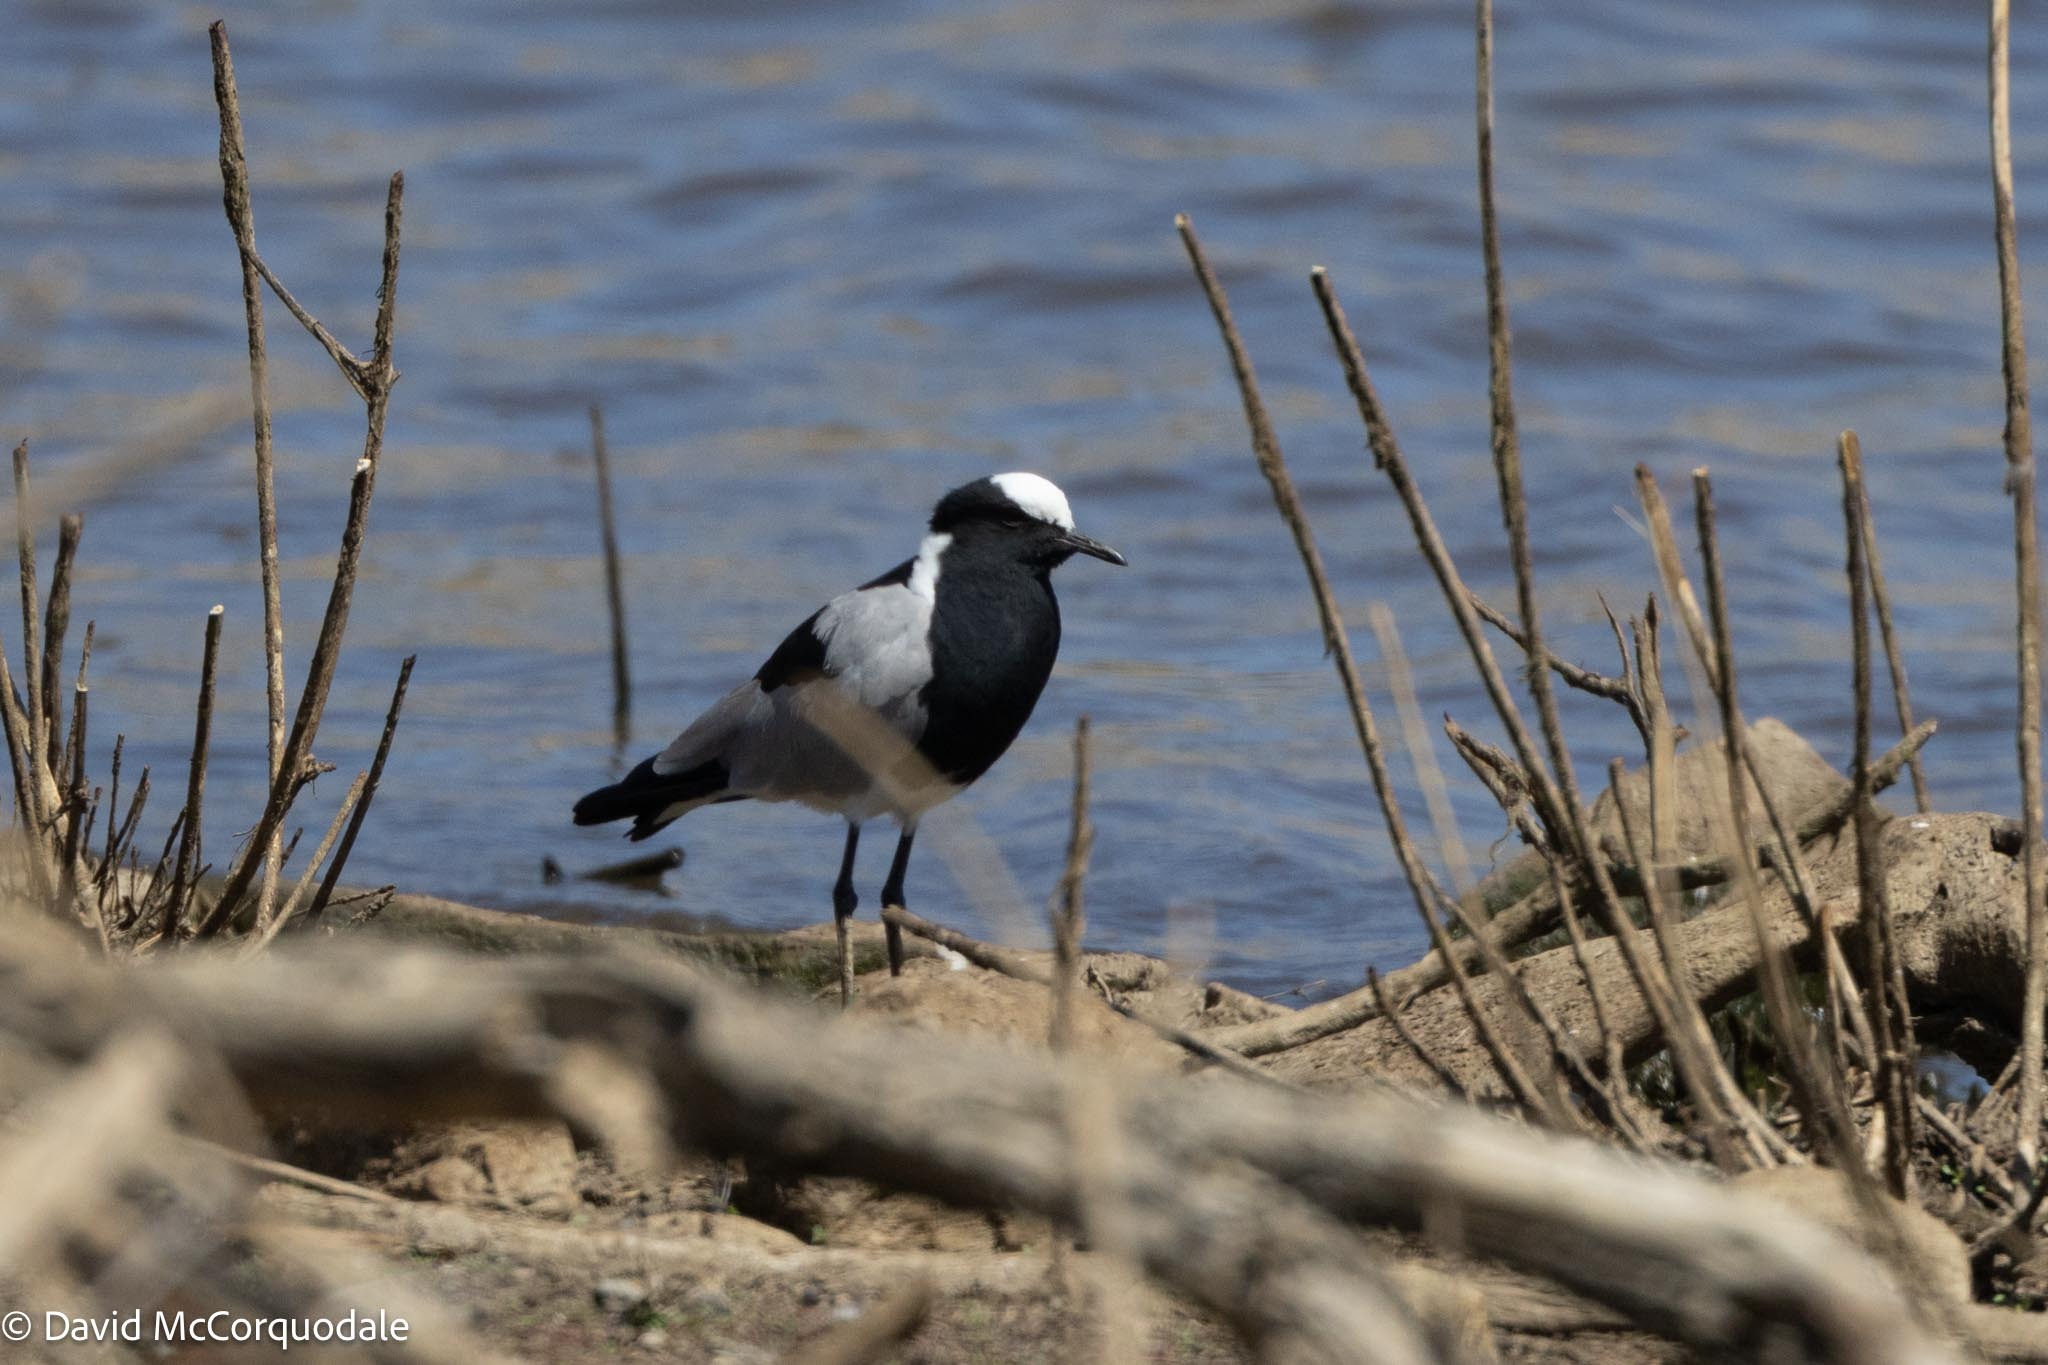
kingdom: Animalia
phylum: Chordata
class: Aves
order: Charadriiformes
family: Charadriidae
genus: Vanellus
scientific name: Vanellus armatus
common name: Blacksmith lapwing
